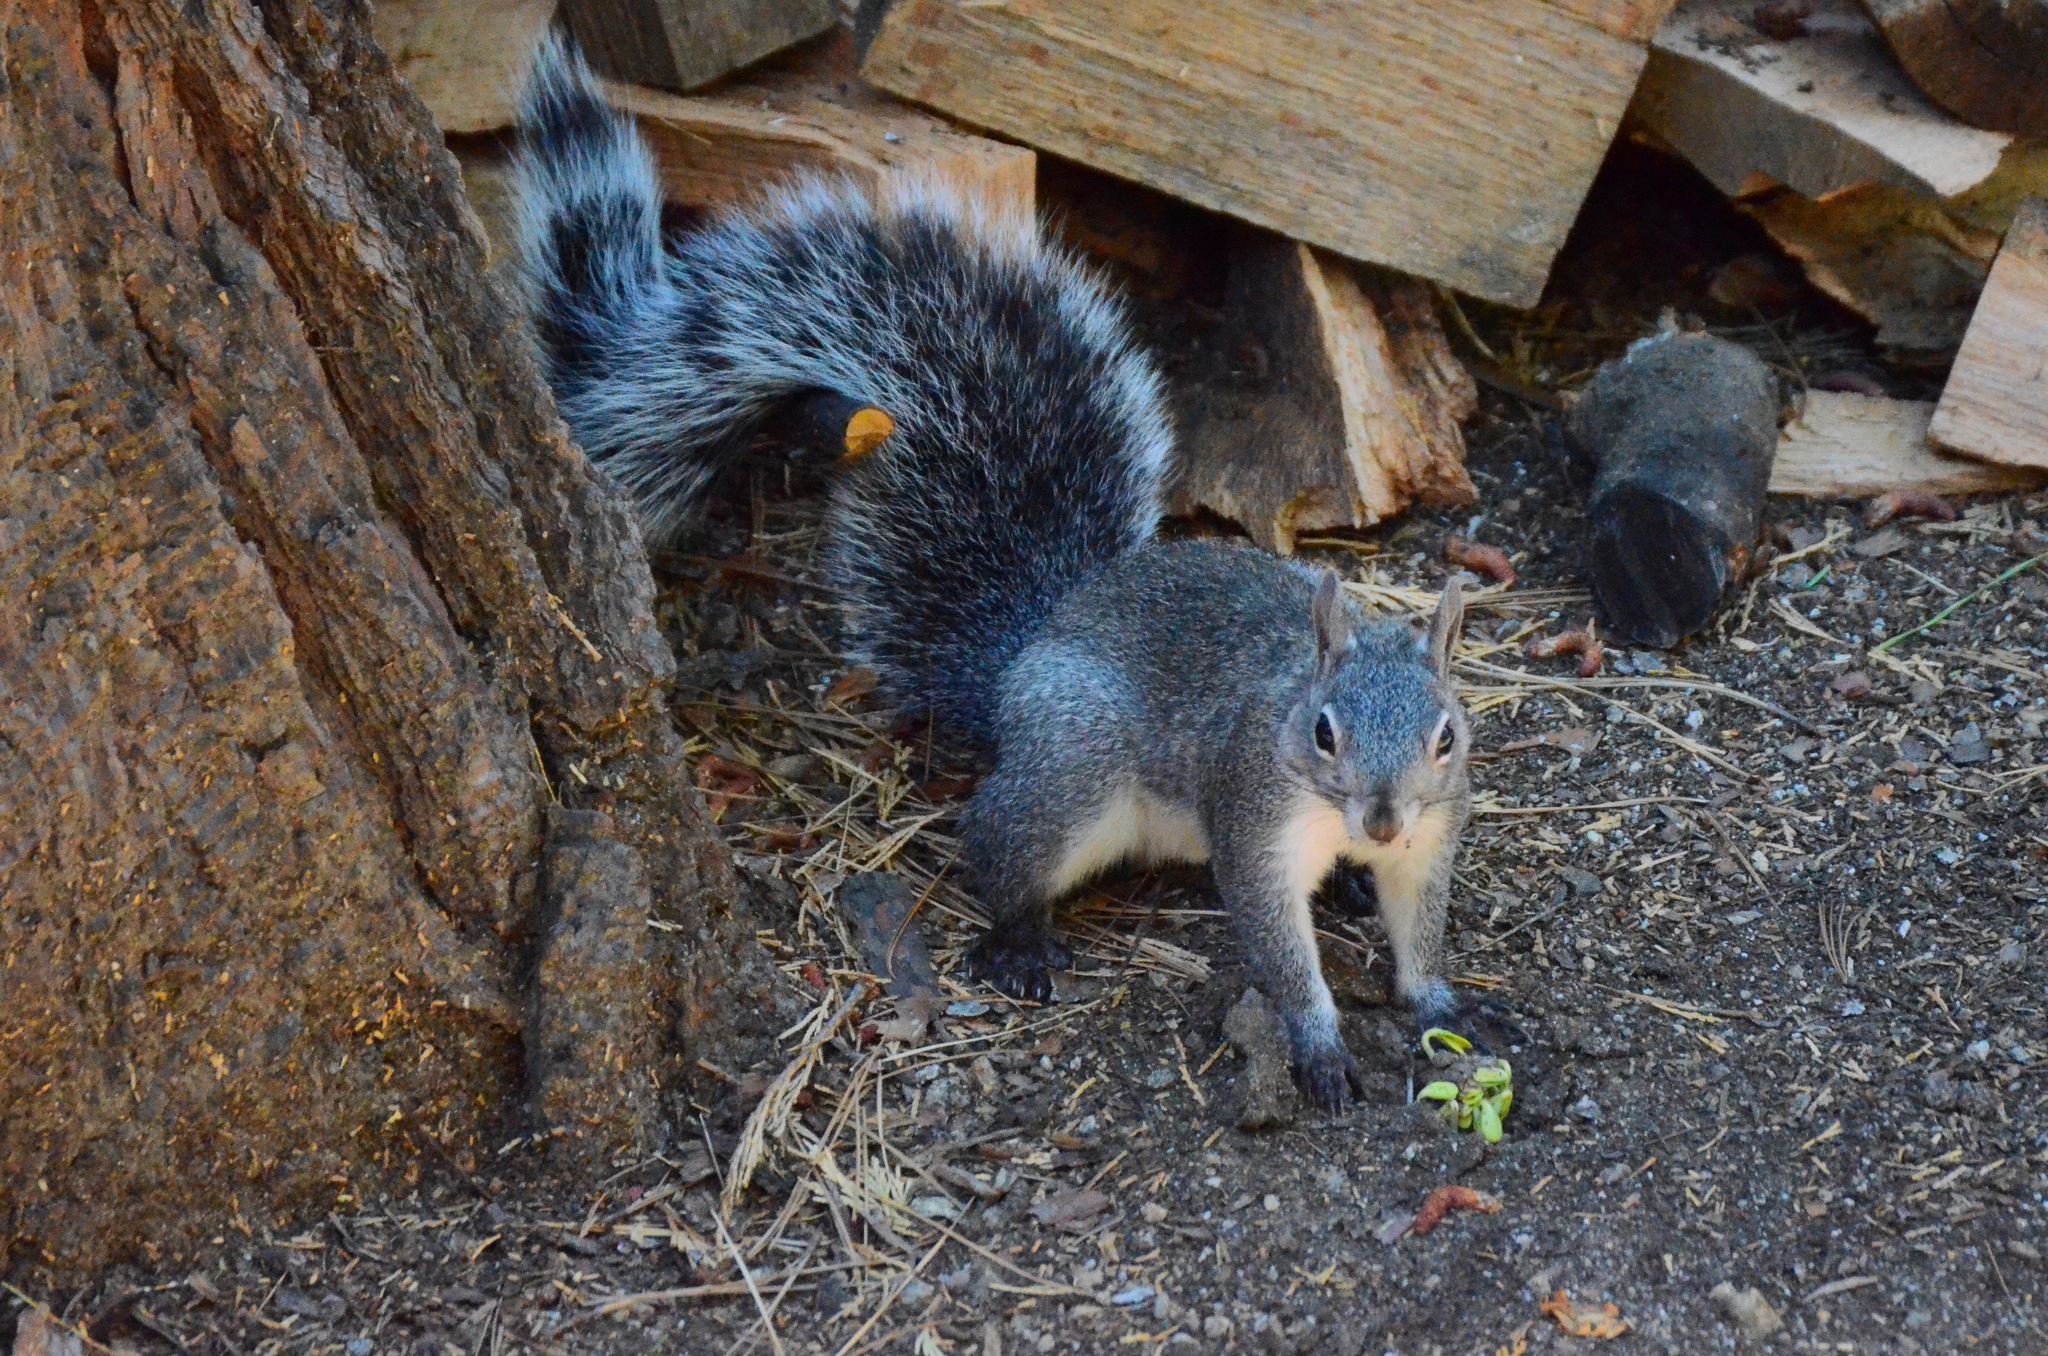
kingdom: Animalia
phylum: Chordata
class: Mammalia
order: Rodentia
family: Sciuridae
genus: Sciurus
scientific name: Sciurus griseus
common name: Western gray squirrel
